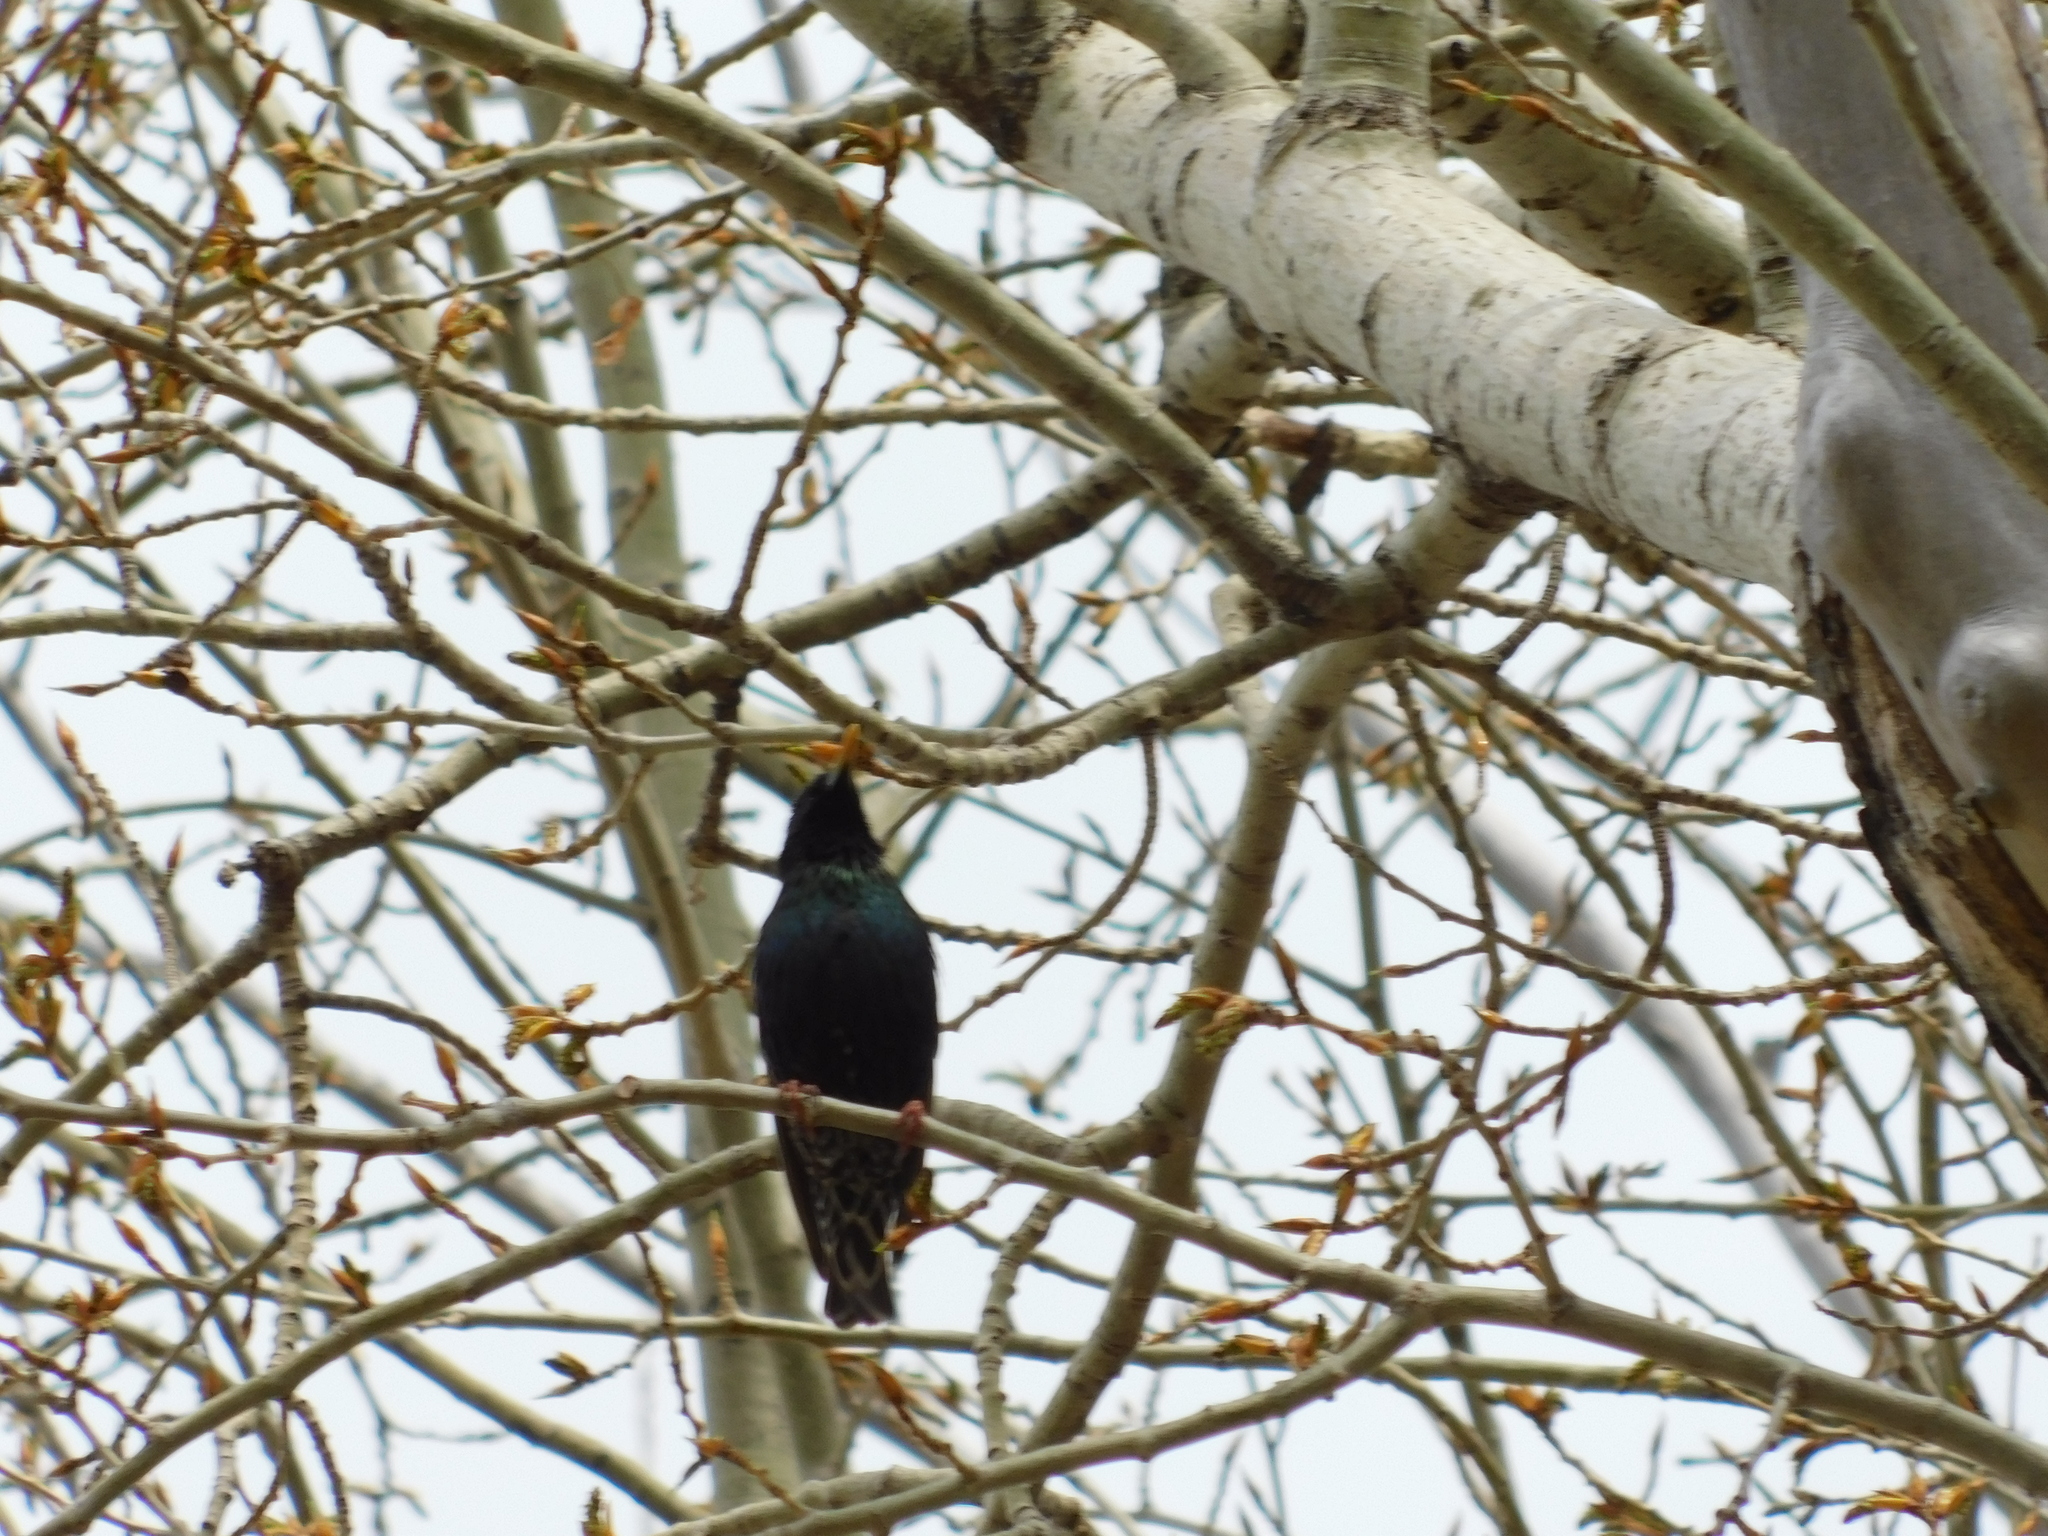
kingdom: Animalia
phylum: Chordata
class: Aves
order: Passeriformes
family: Sturnidae
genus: Sturnus
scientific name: Sturnus vulgaris
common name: Common starling
